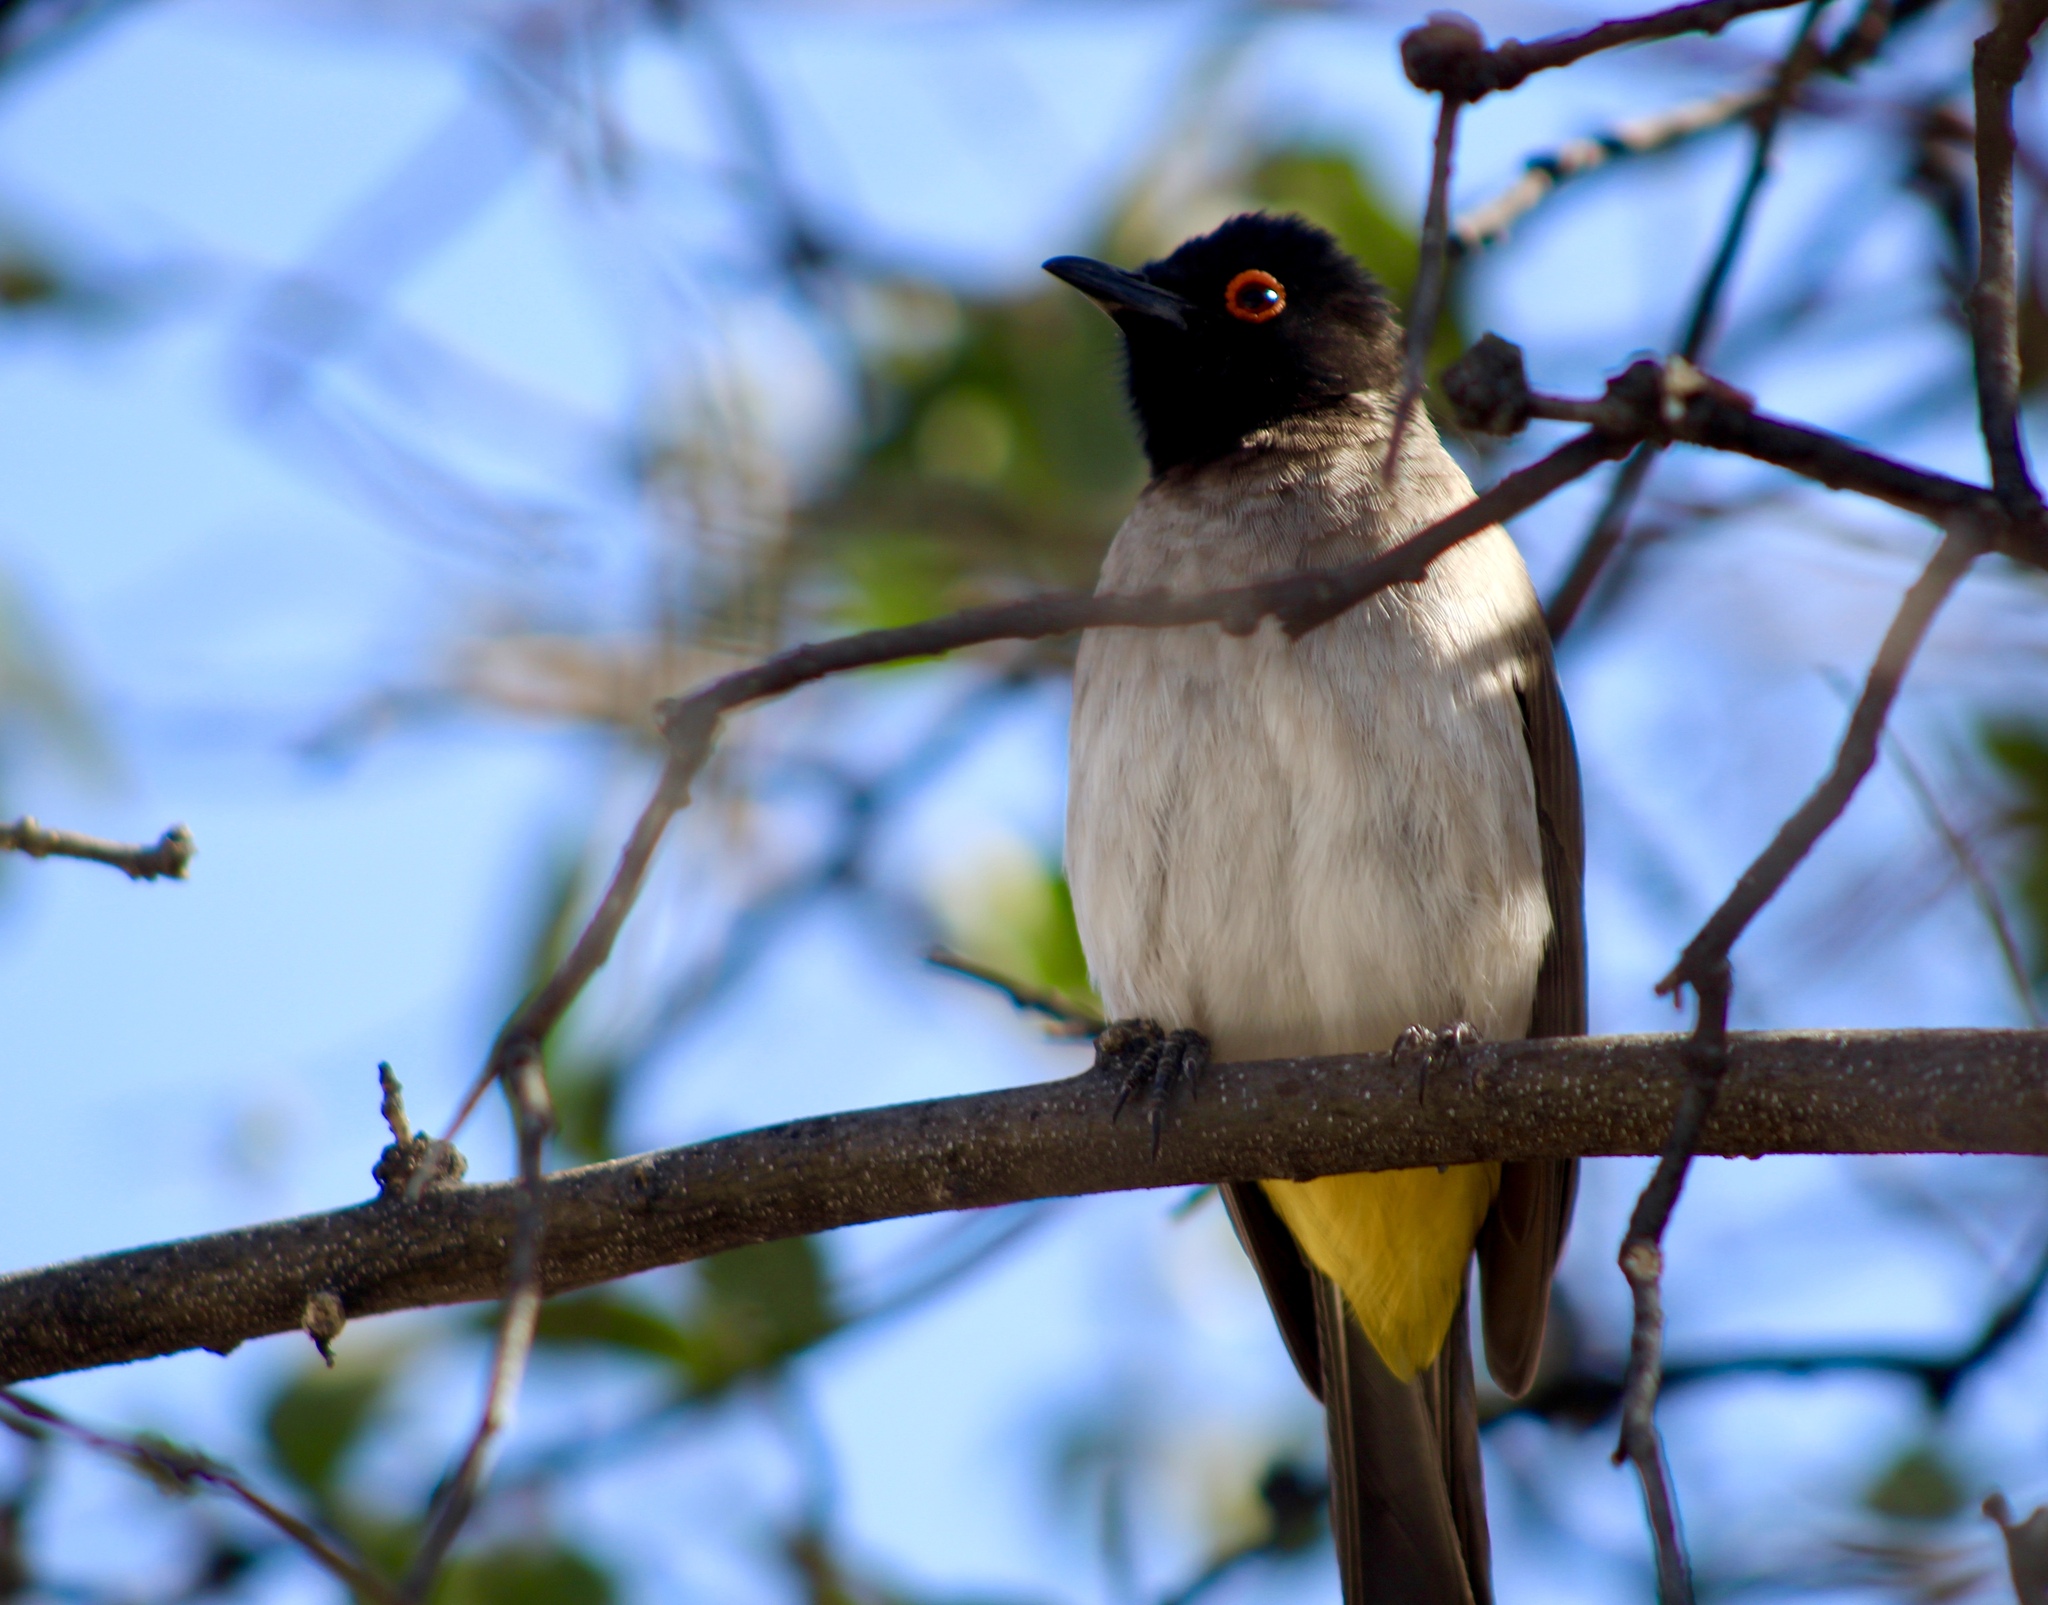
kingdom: Animalia
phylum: Chordata
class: Aves
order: Passeriformes
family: Pycnonotidae
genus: Pycnonotus
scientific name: Pycnonotus nigricans
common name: African red-eyed bulbul
